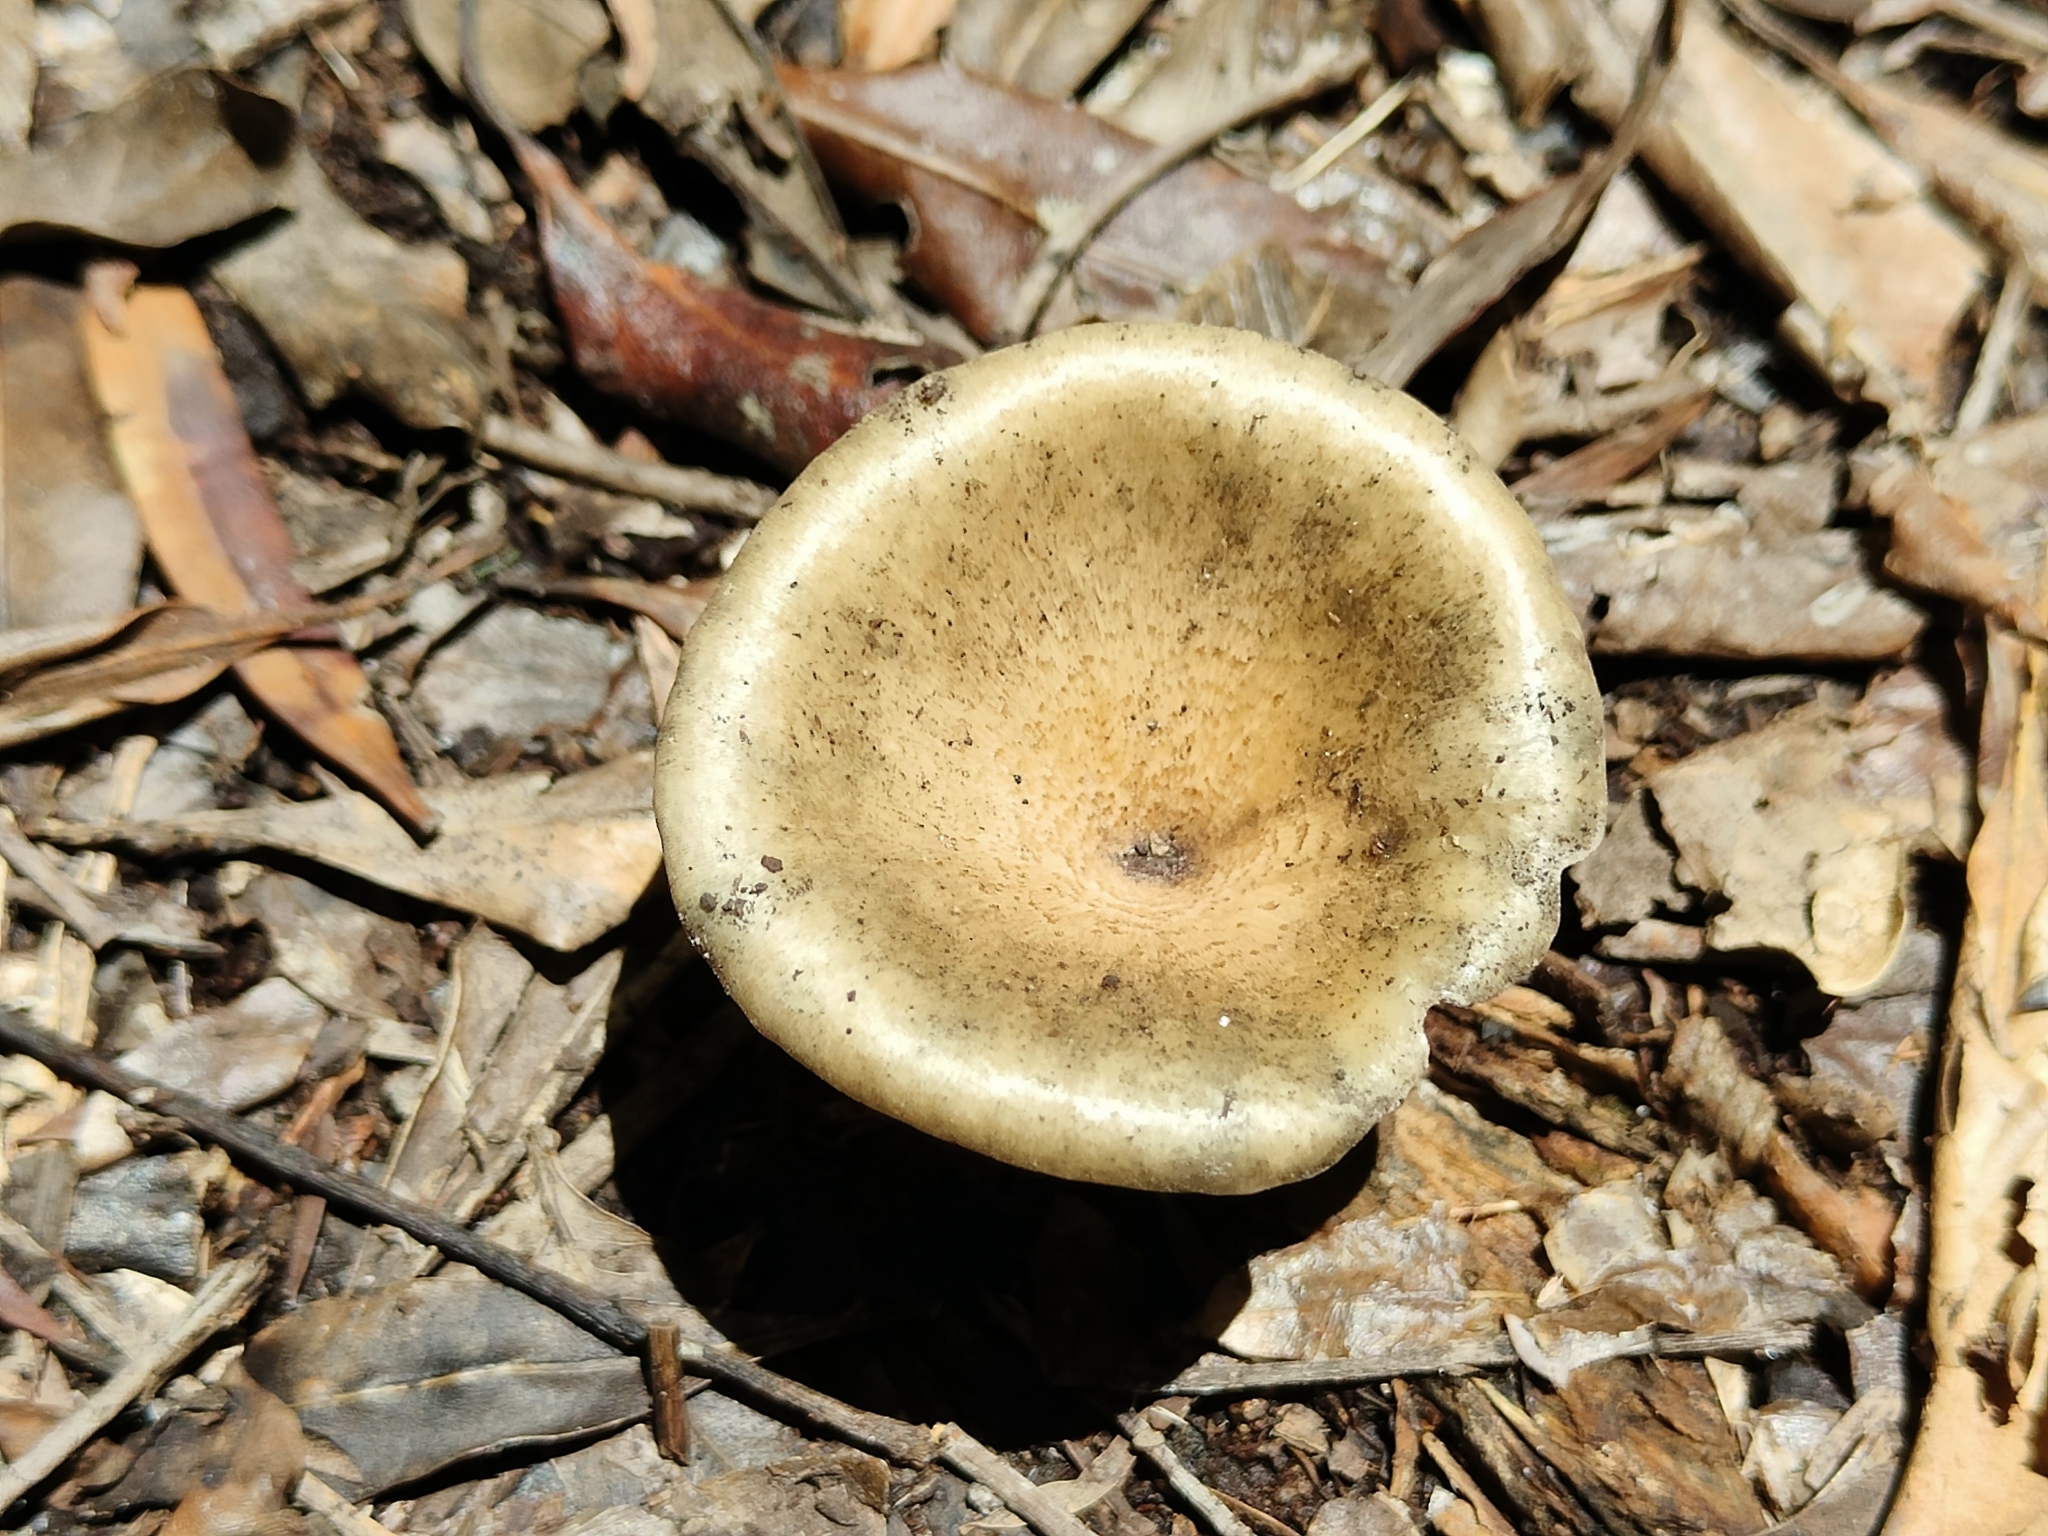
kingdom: Fungi
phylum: Basidiomycota
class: Agaricomycetes
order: Polyporales
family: Polyporaceae
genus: Lentinus
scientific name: Lentinus sajor-caju
